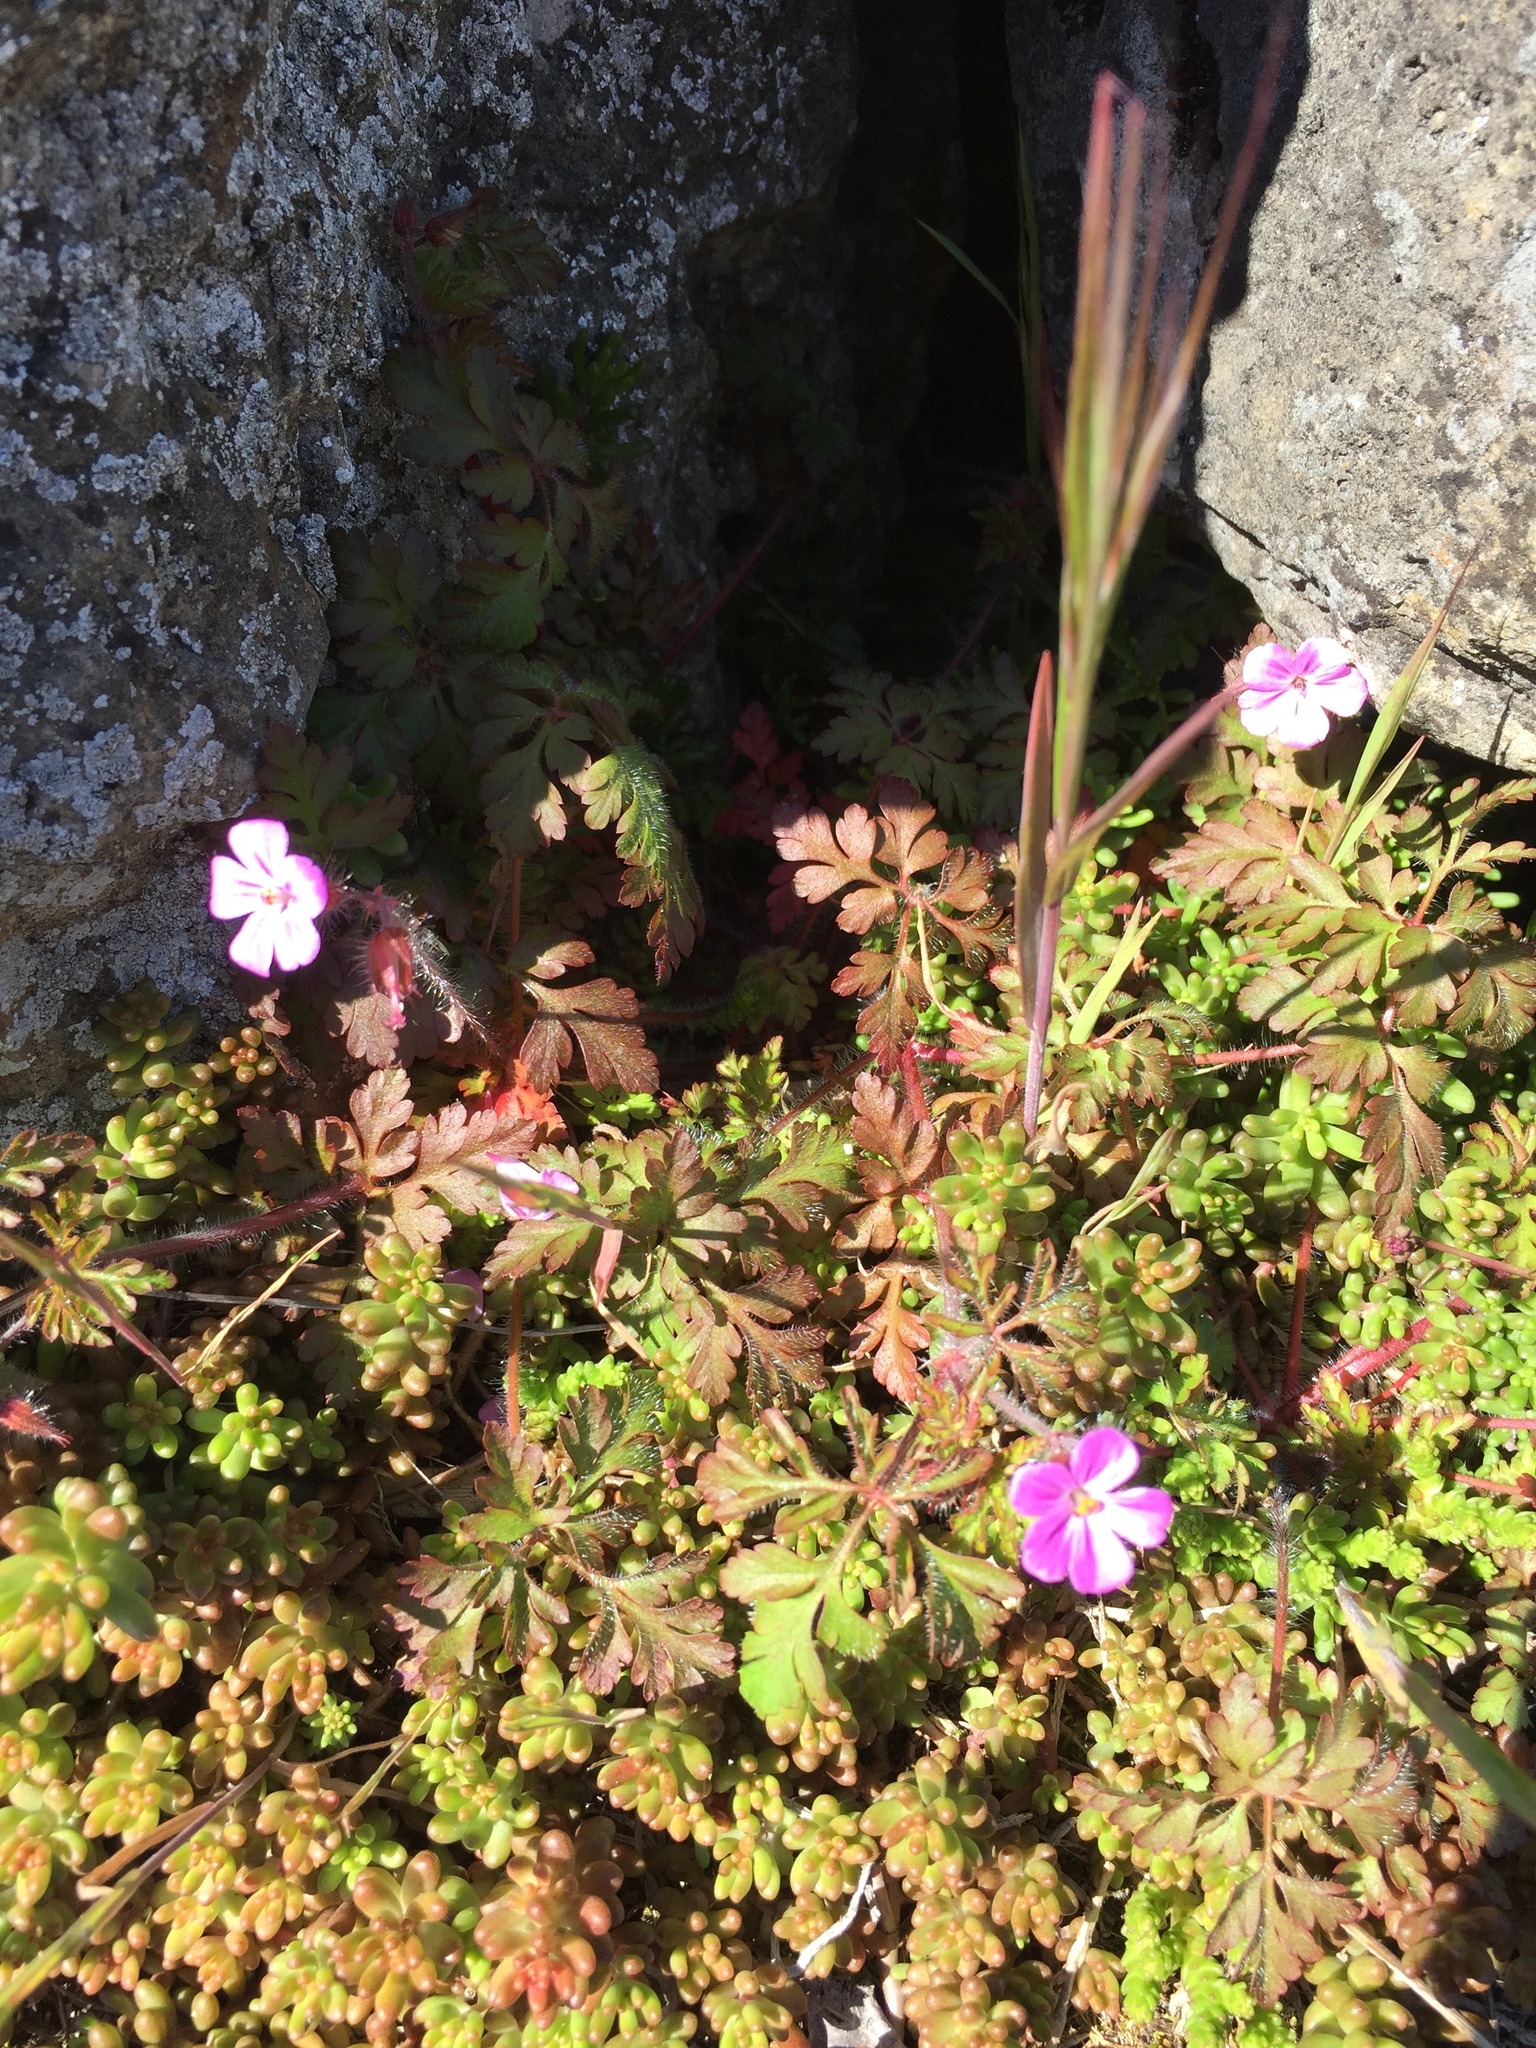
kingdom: Plantae
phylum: Tracheophyta
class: Magnoliopsida
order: Geraniales
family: Geraniaceae
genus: Geranium
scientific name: Geranium robertianum
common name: Herb-robert
